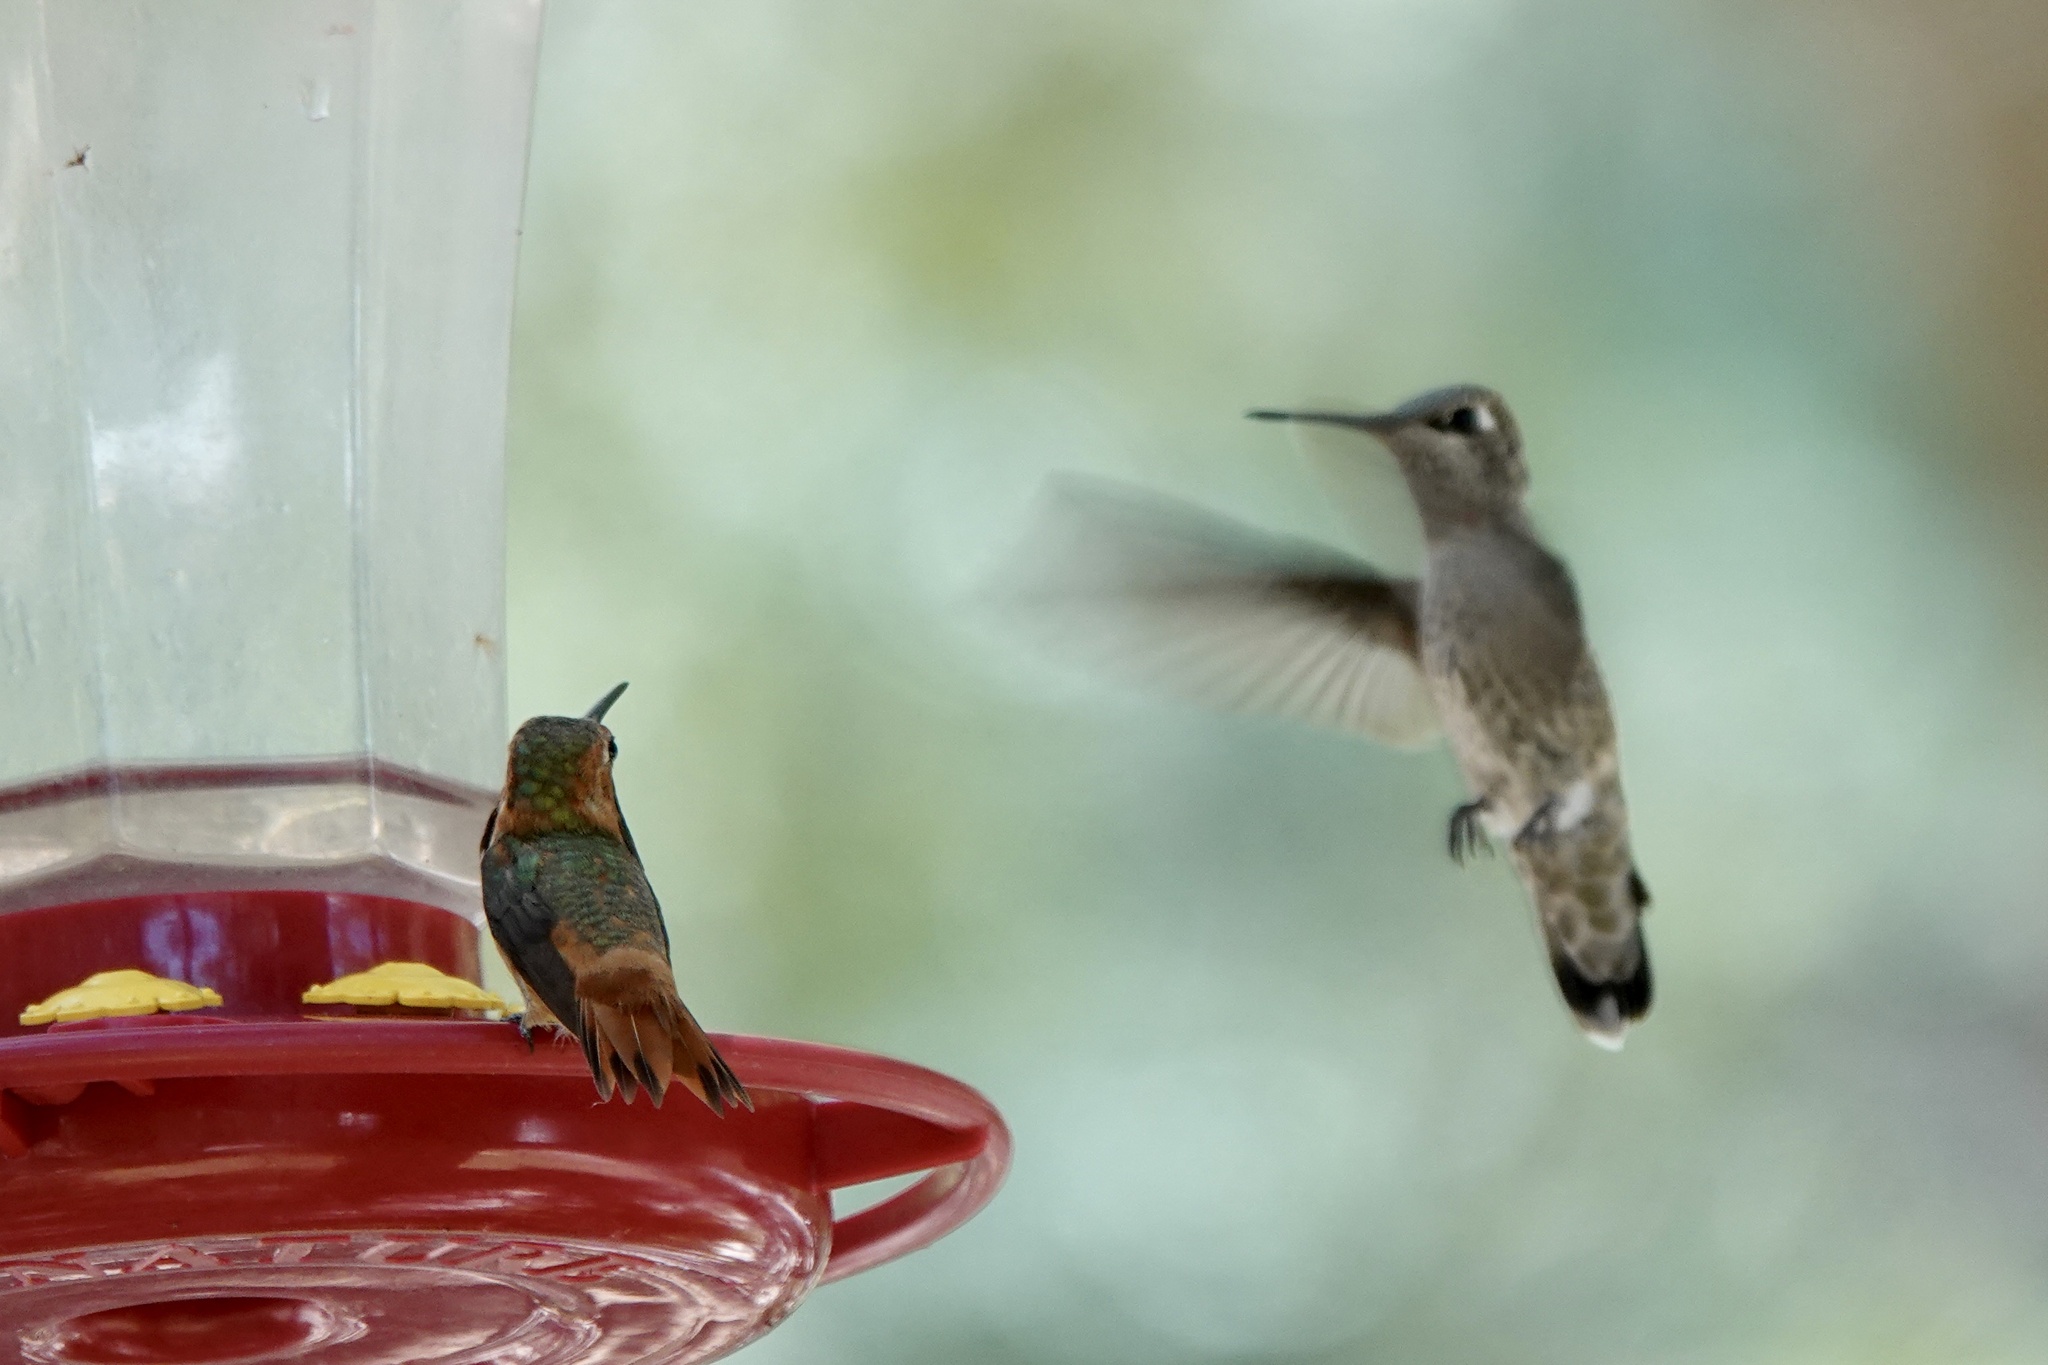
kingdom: Animalia
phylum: Chordata
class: Aves
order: Apodiformes
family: Trochilidae
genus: Calypte
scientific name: Calypte anna
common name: Anna's hummingbird
